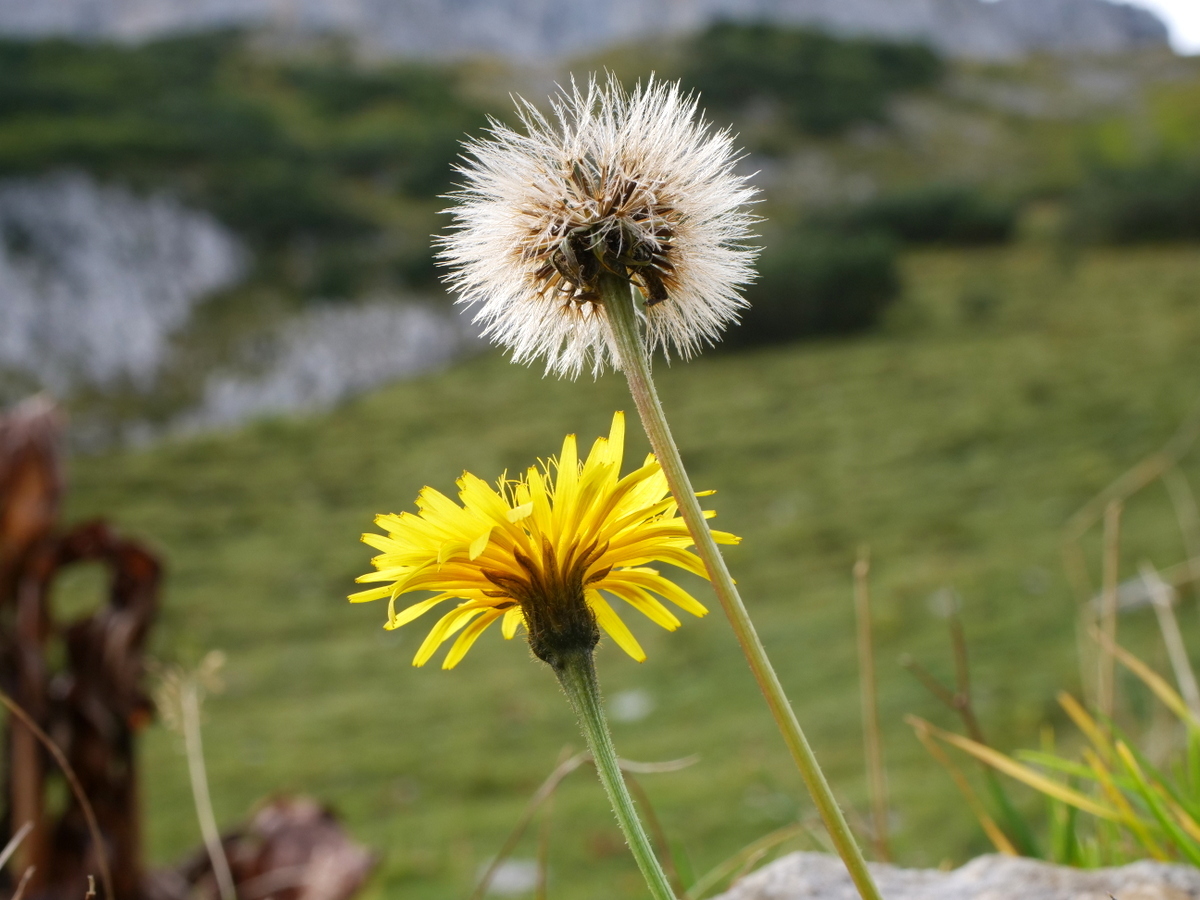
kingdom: Plantae
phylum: Tracheophyta
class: Magnoliopsida
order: Asterales
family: Asteraceae
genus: Leontodon
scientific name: Leontodon hispidus
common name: Rough hawkbit
